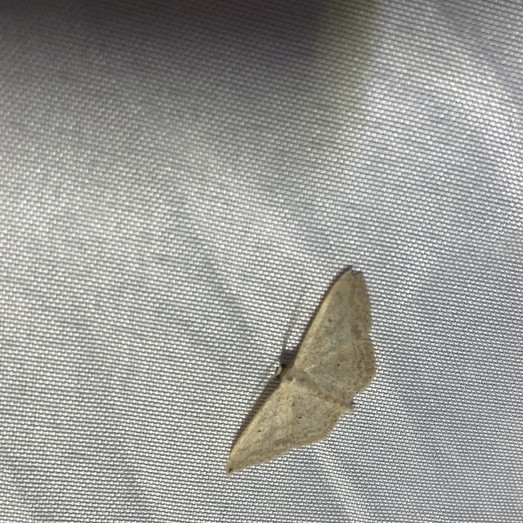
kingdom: Animalia
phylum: Arthropoda
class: Insecta
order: Lepidoptera
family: Geometridae
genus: Scopula
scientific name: Scopula umbilicata
